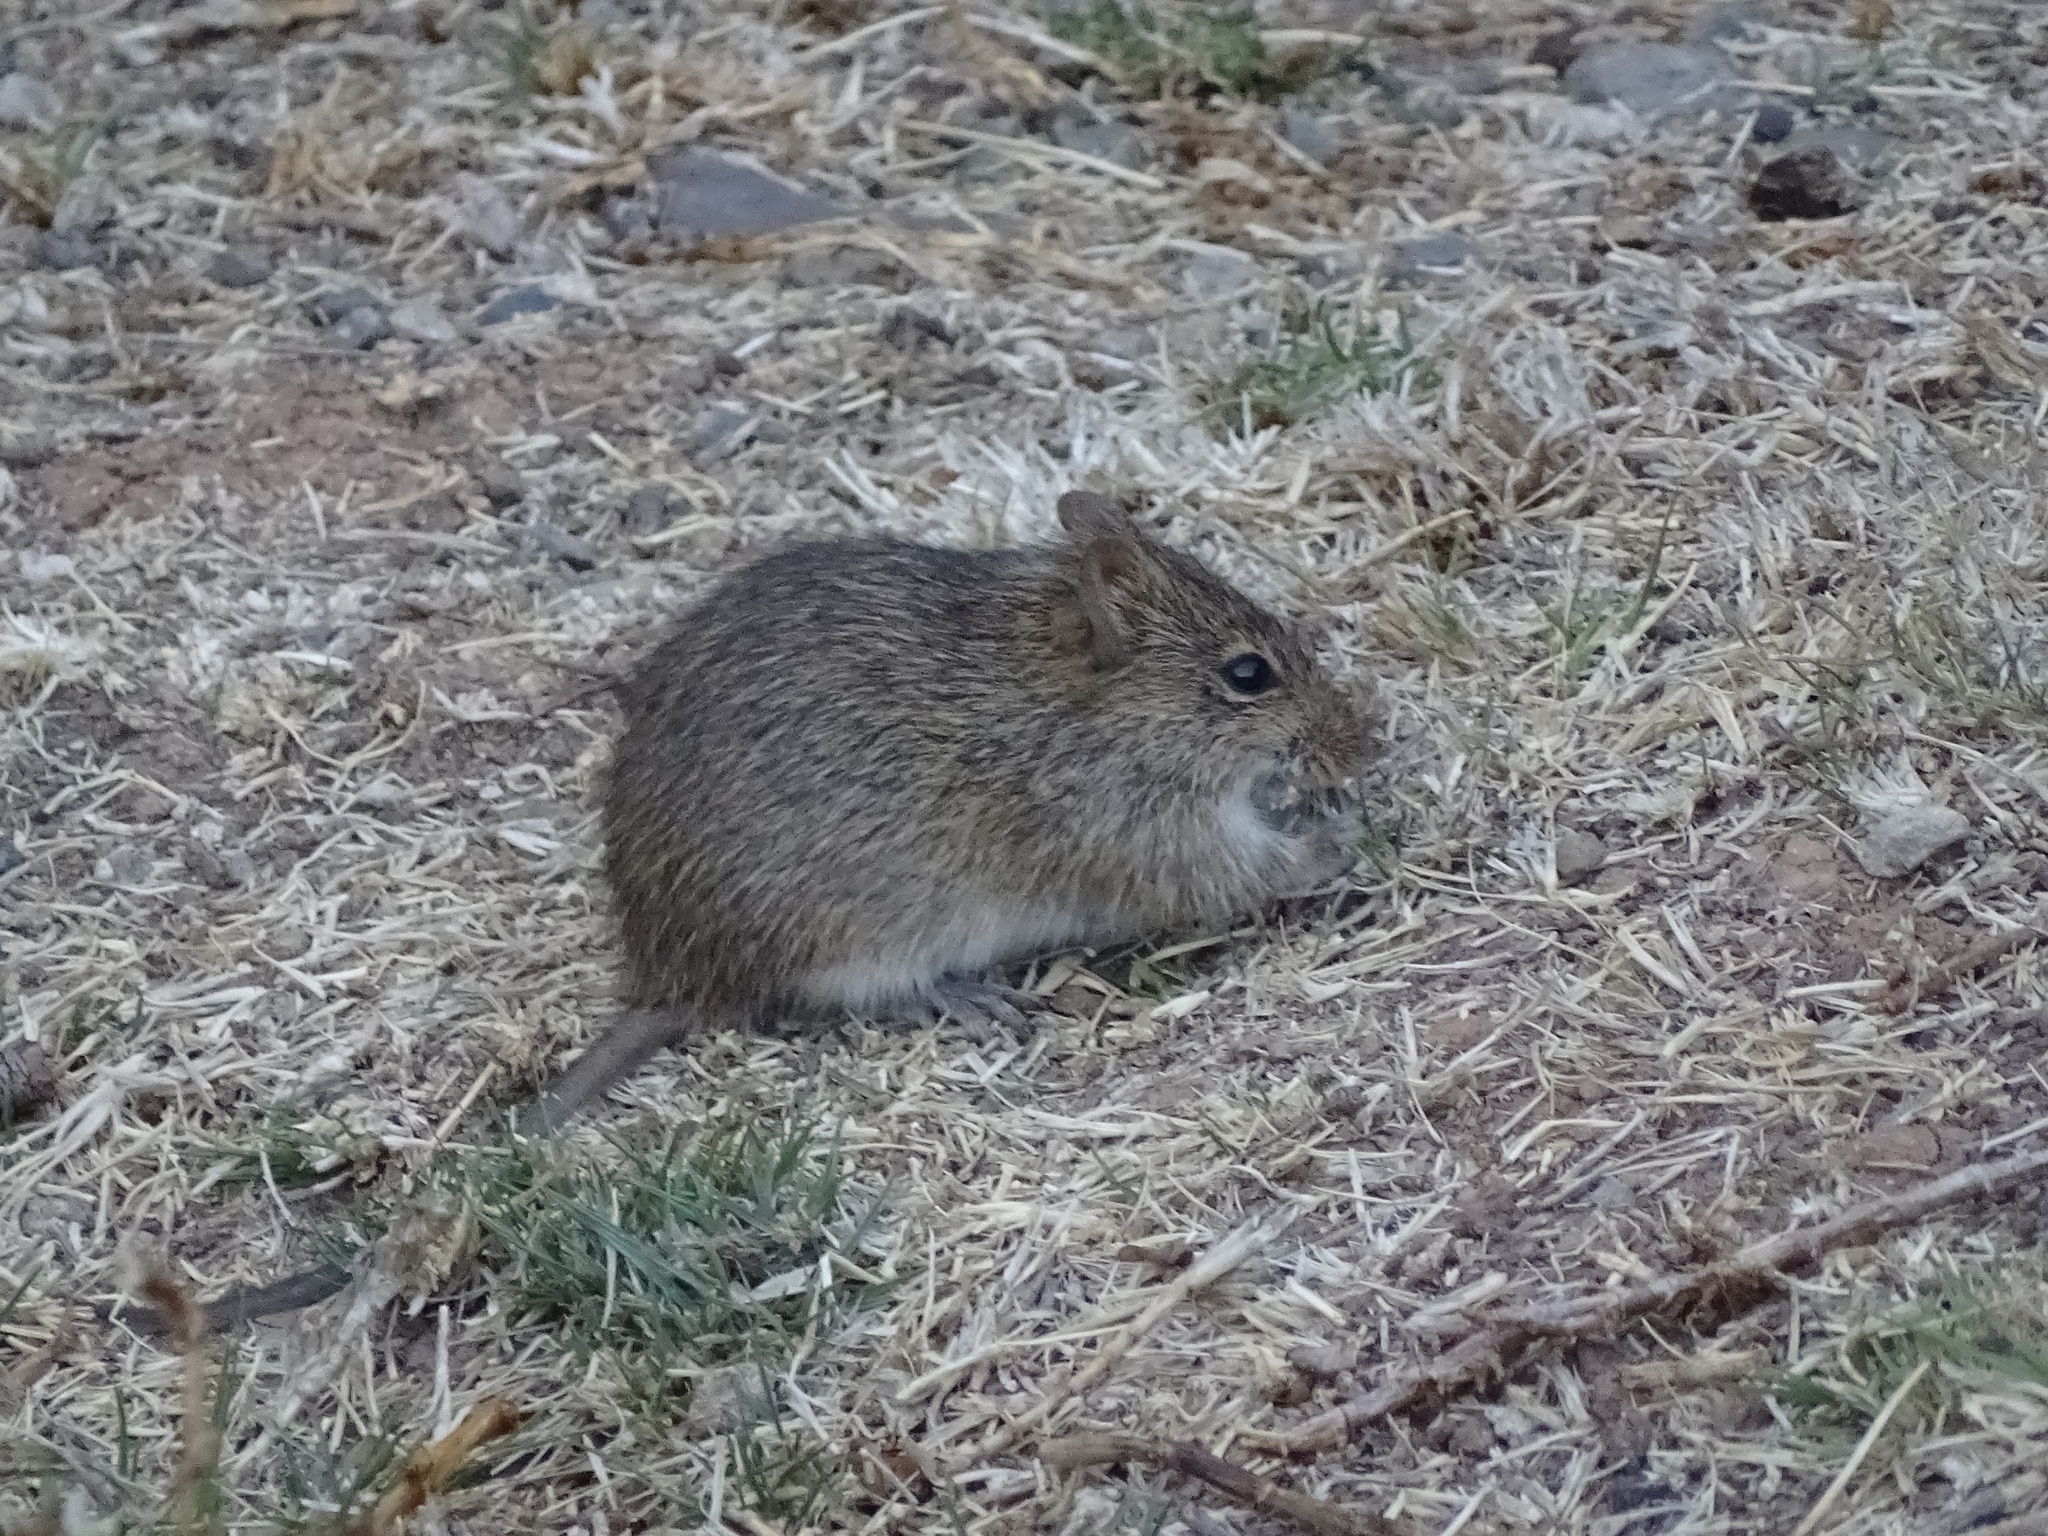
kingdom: Animalia
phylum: Chordata
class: Mammalia
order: Rodentia
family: Cricetidae
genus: Sigmodon
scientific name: Sigmodon hispidus
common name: Hispid cotton rat
